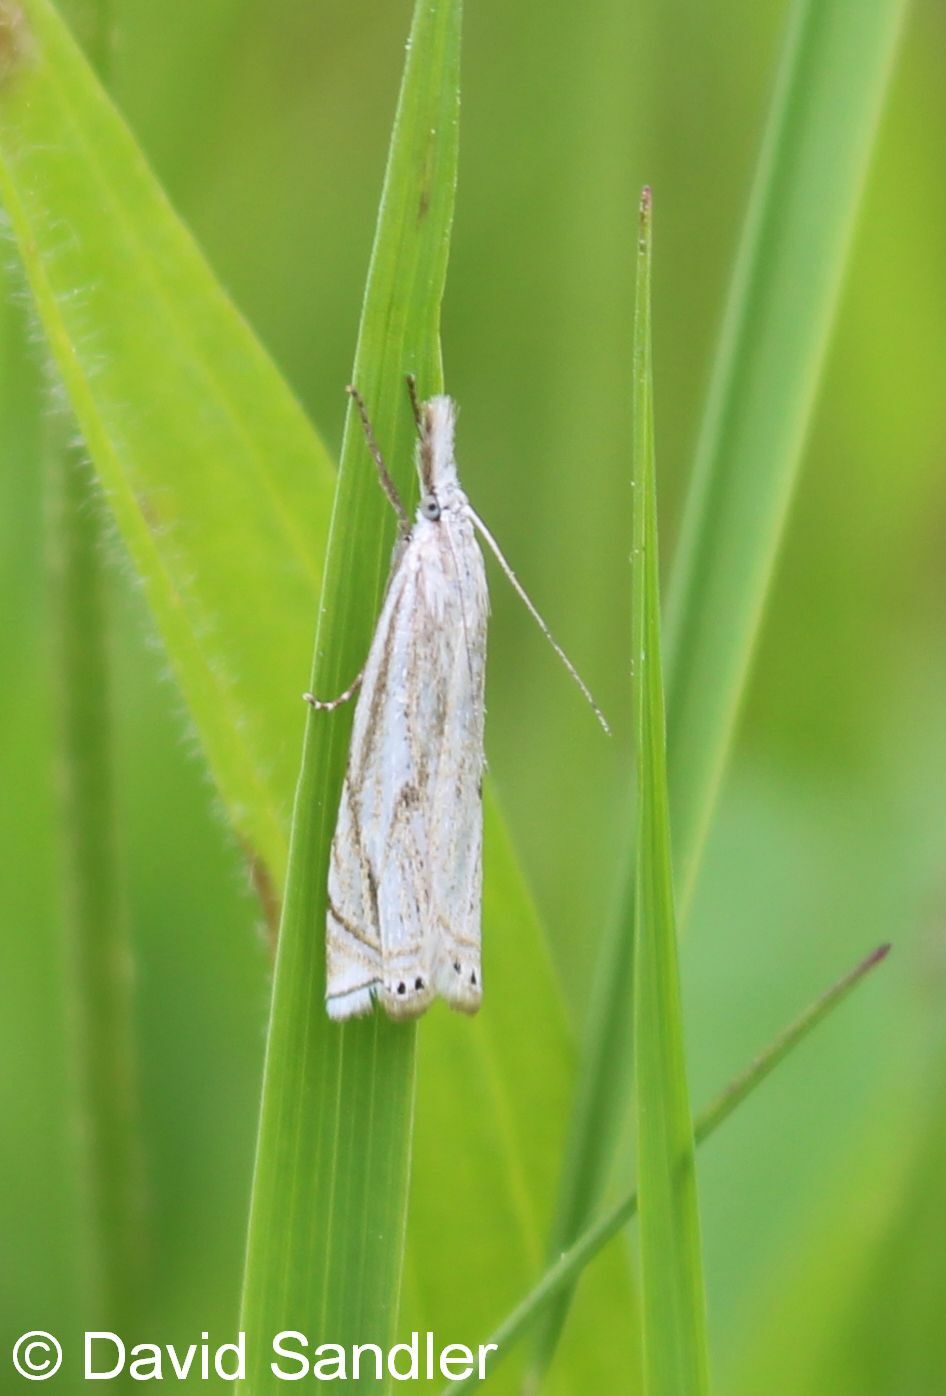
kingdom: Animalia
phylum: Arthropoda
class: Insecta
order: Lepidoptera
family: Crambidae
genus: Crambus
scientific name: Crambus nemorella
